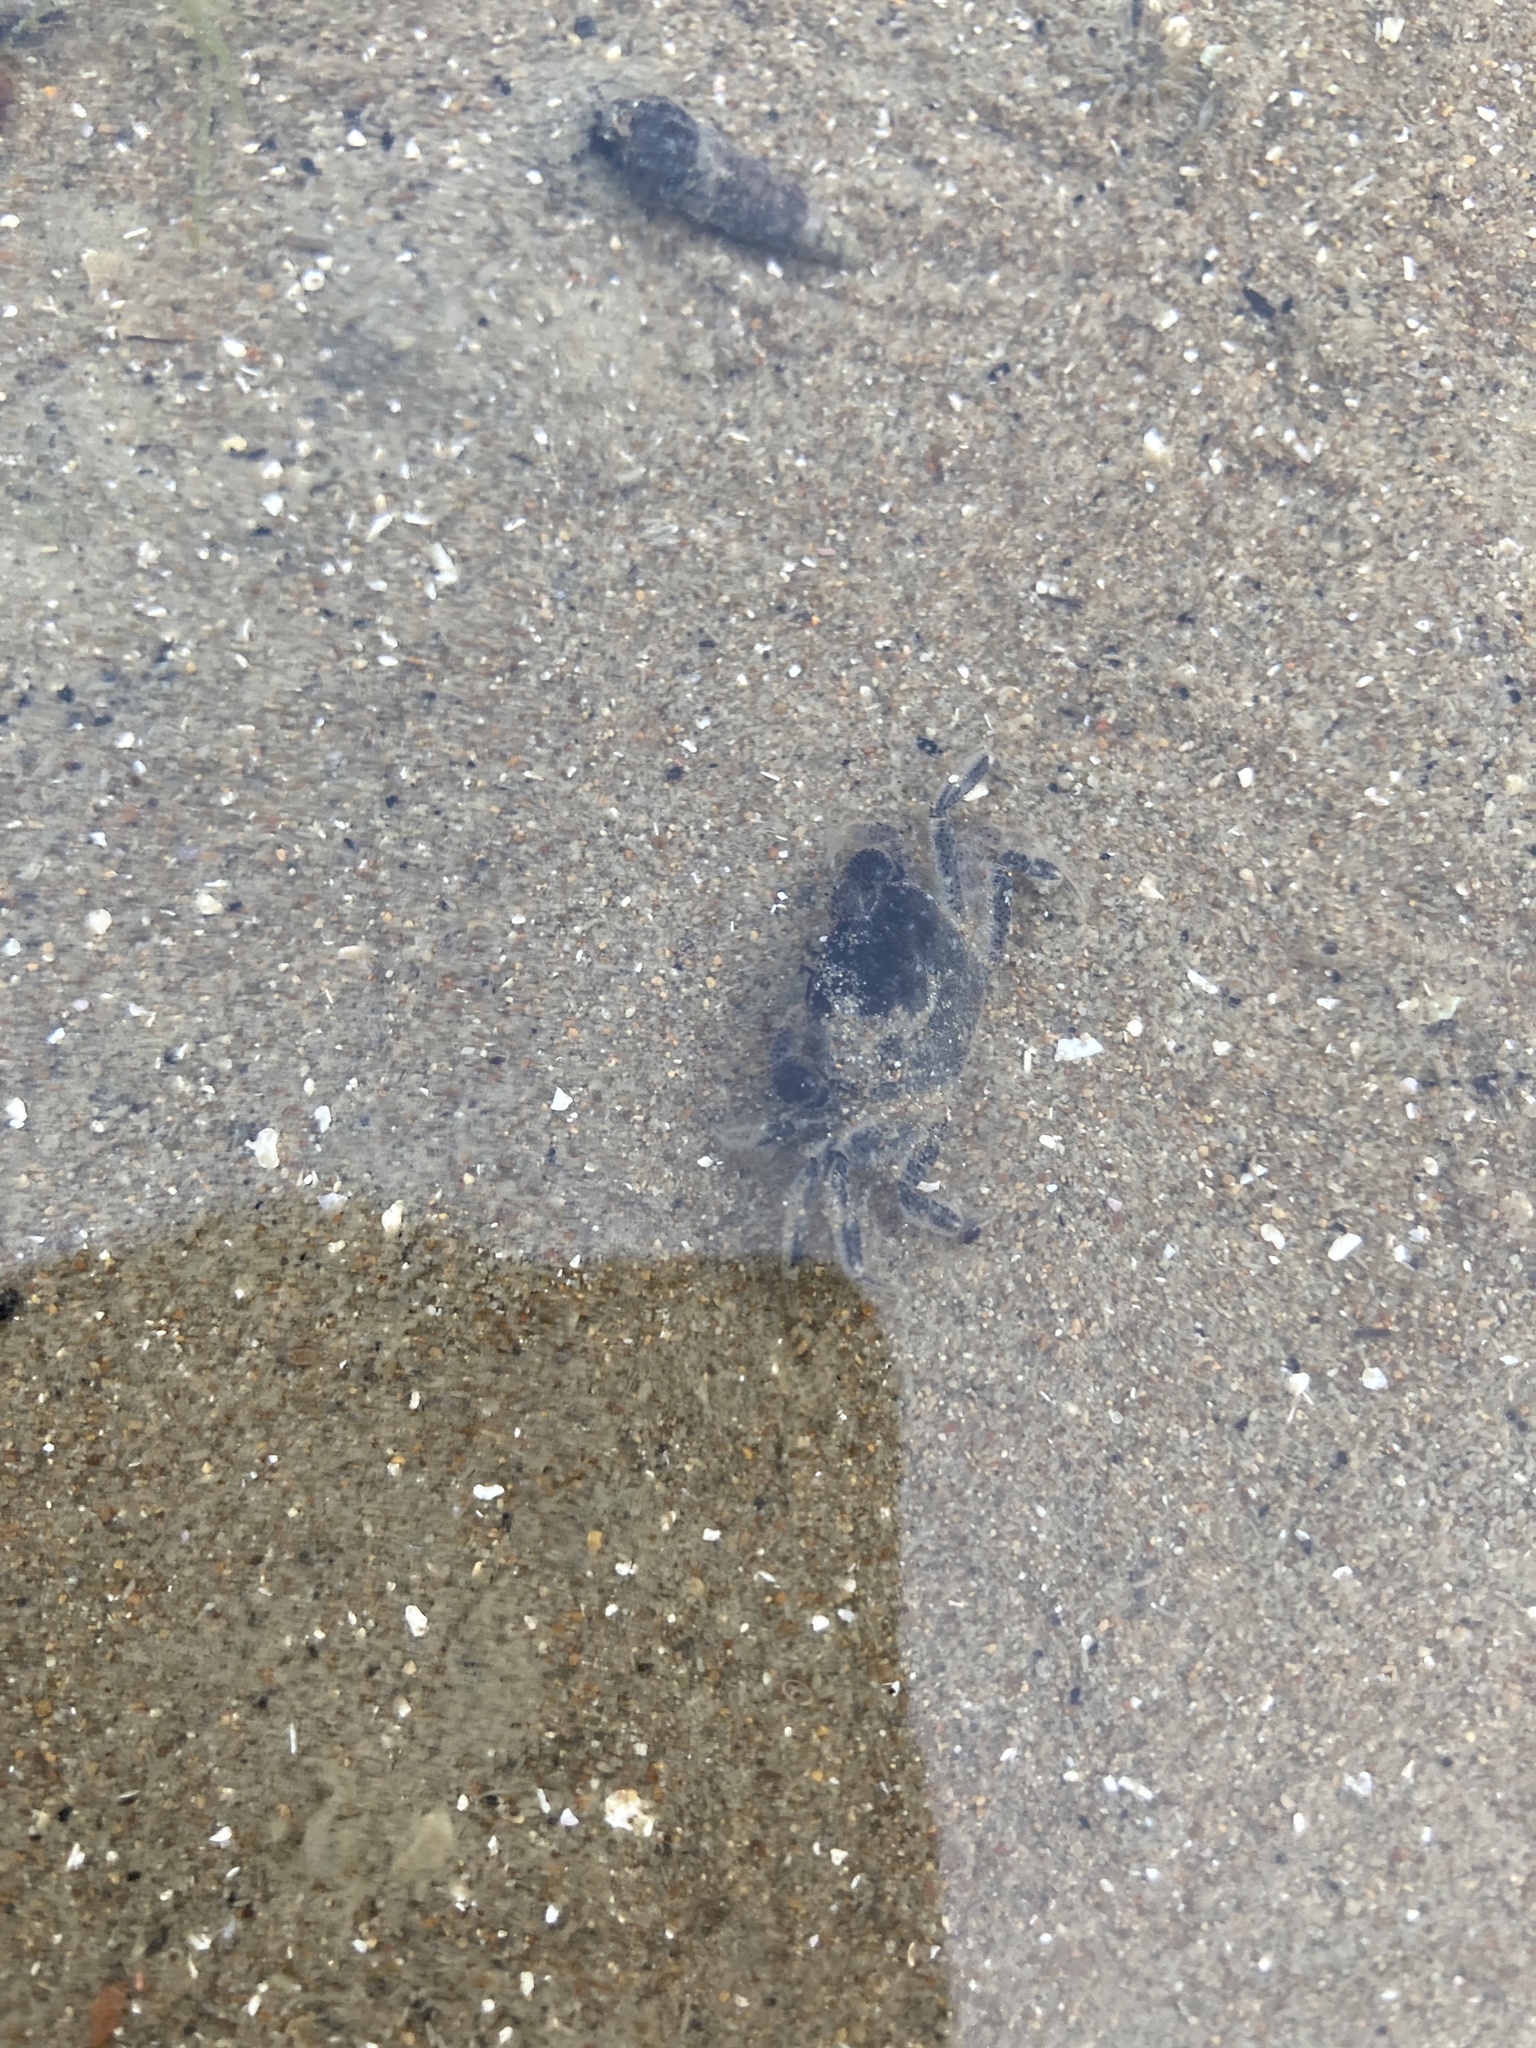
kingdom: Animalia
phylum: Arthropoda
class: Malacostraca
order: Decapoda
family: Varunidae
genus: Hemigrapsus
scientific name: Hemigrapsus crenulatus
